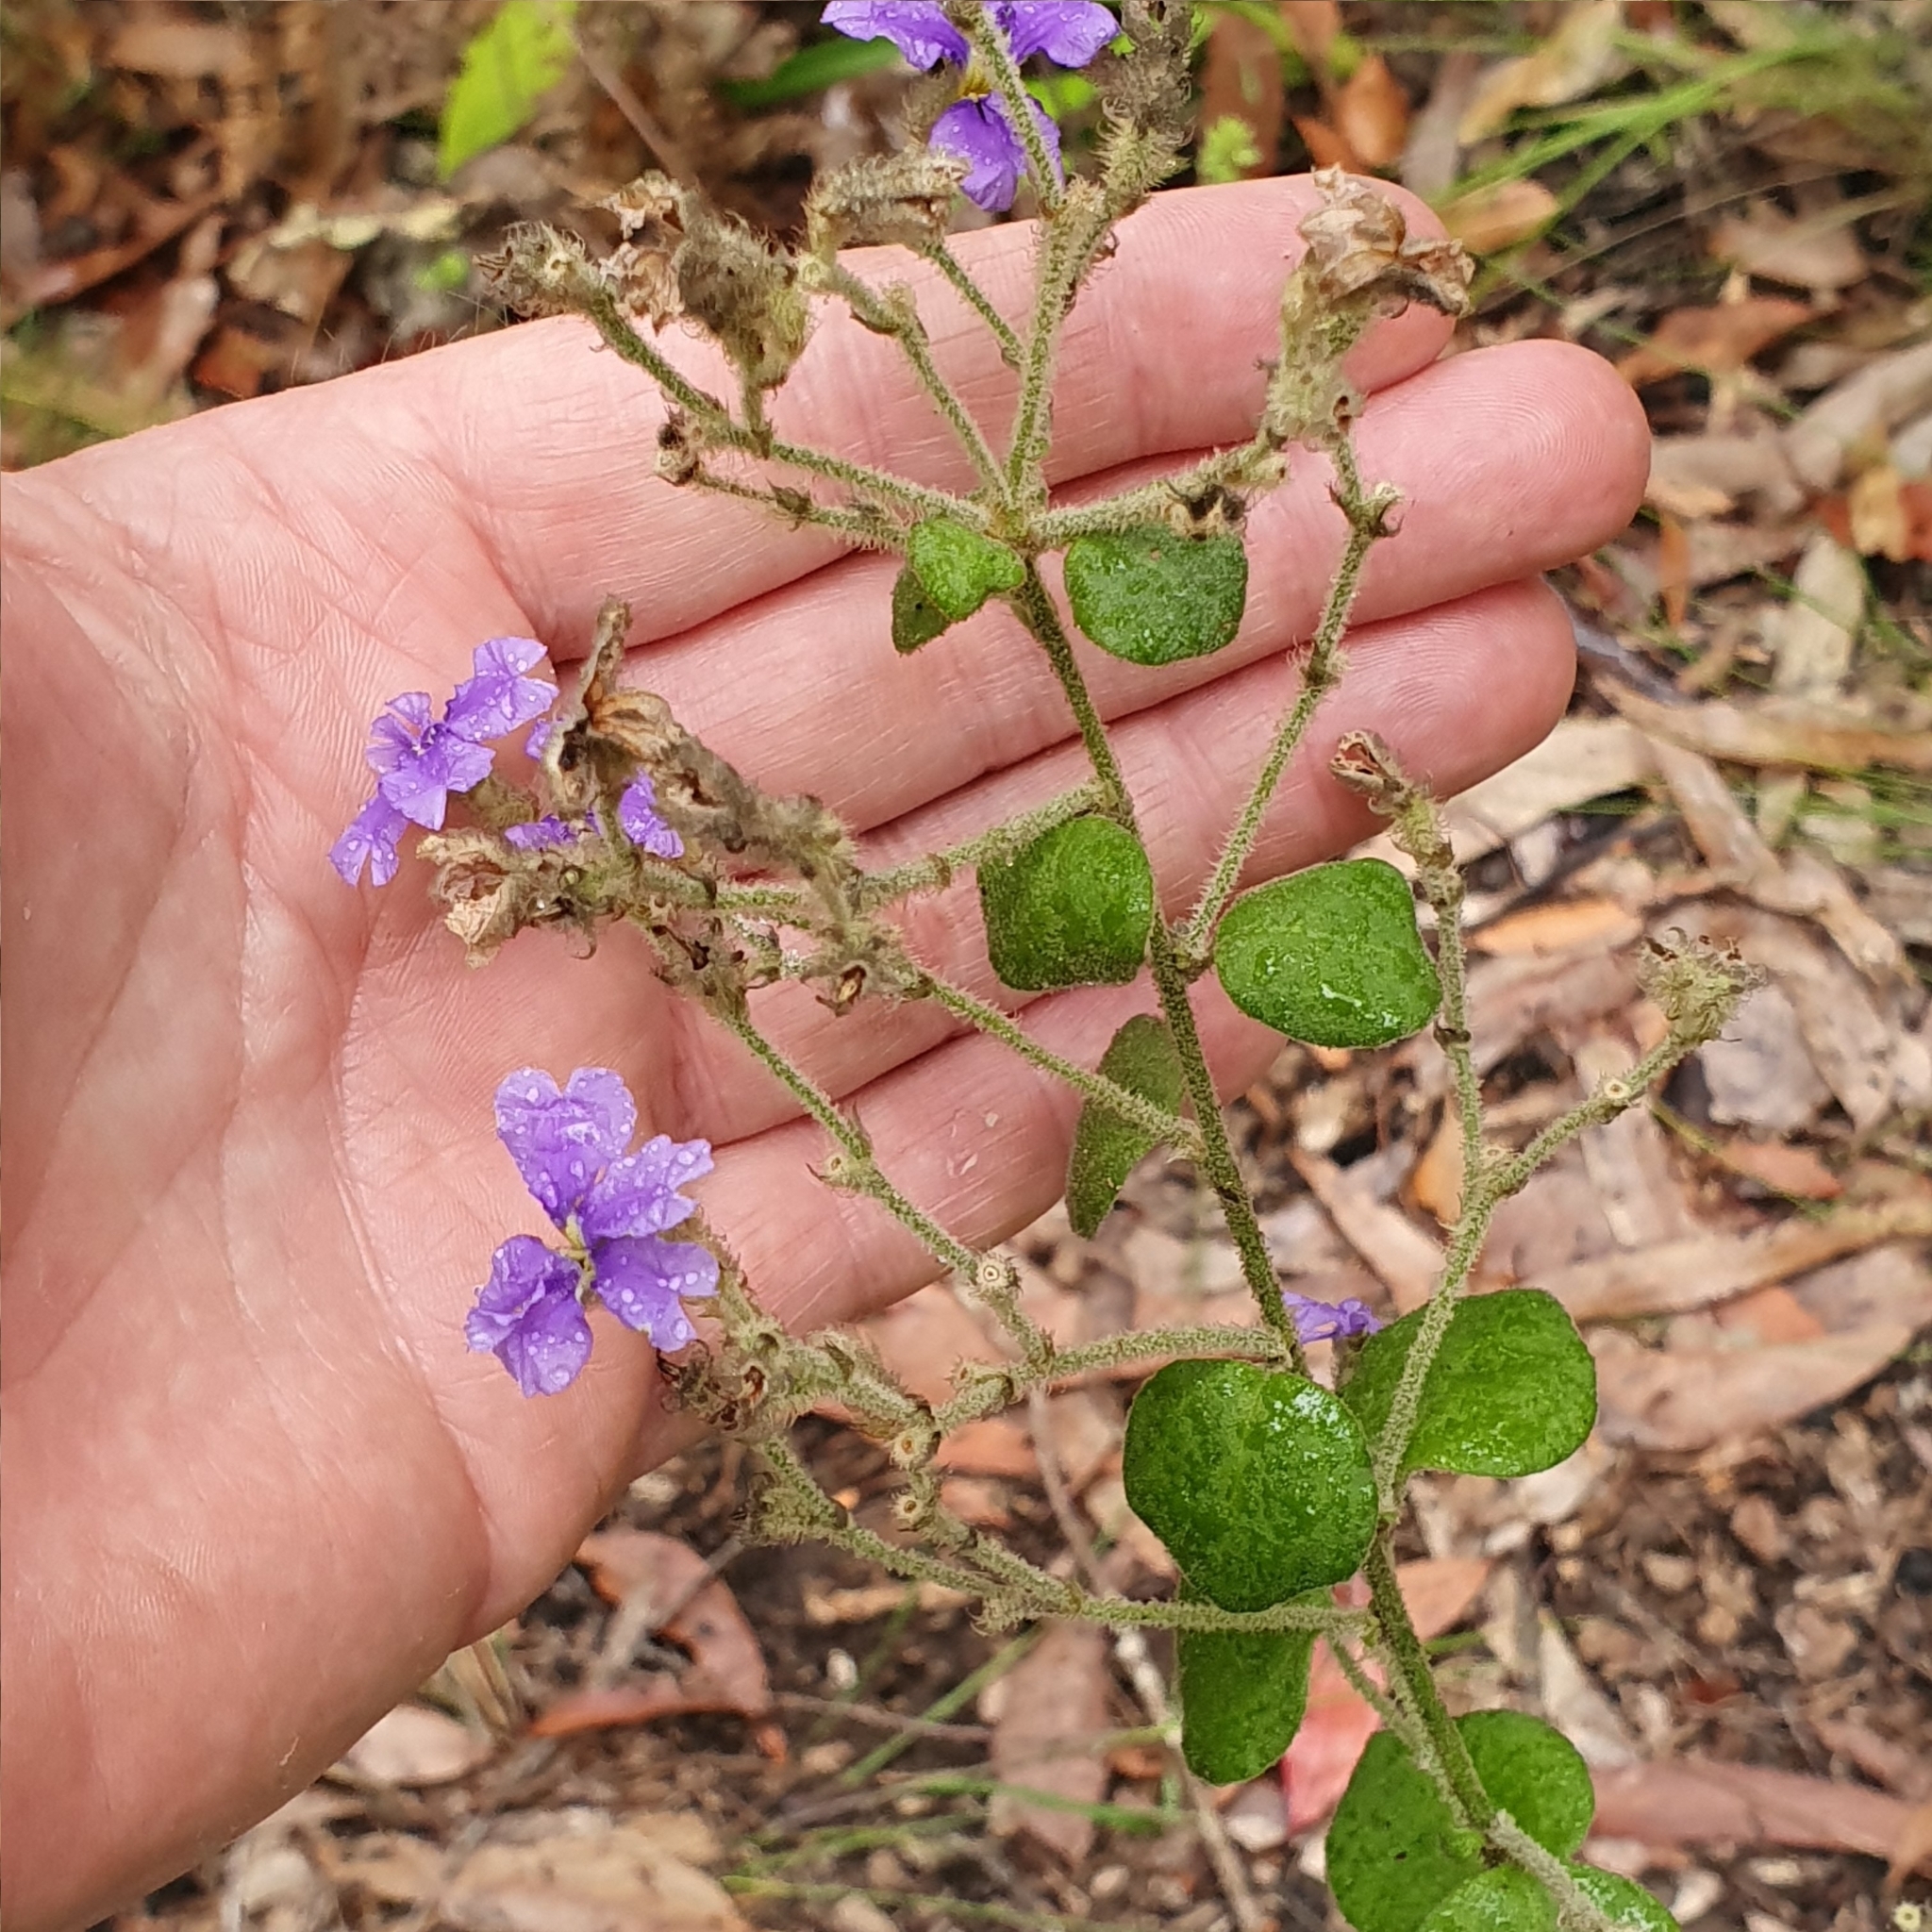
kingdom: Plantae
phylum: Tracheophyta
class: Magnoliopsida
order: Asterales
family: Goodeniaceae
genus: Dampiera
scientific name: Dampiera purpurea
